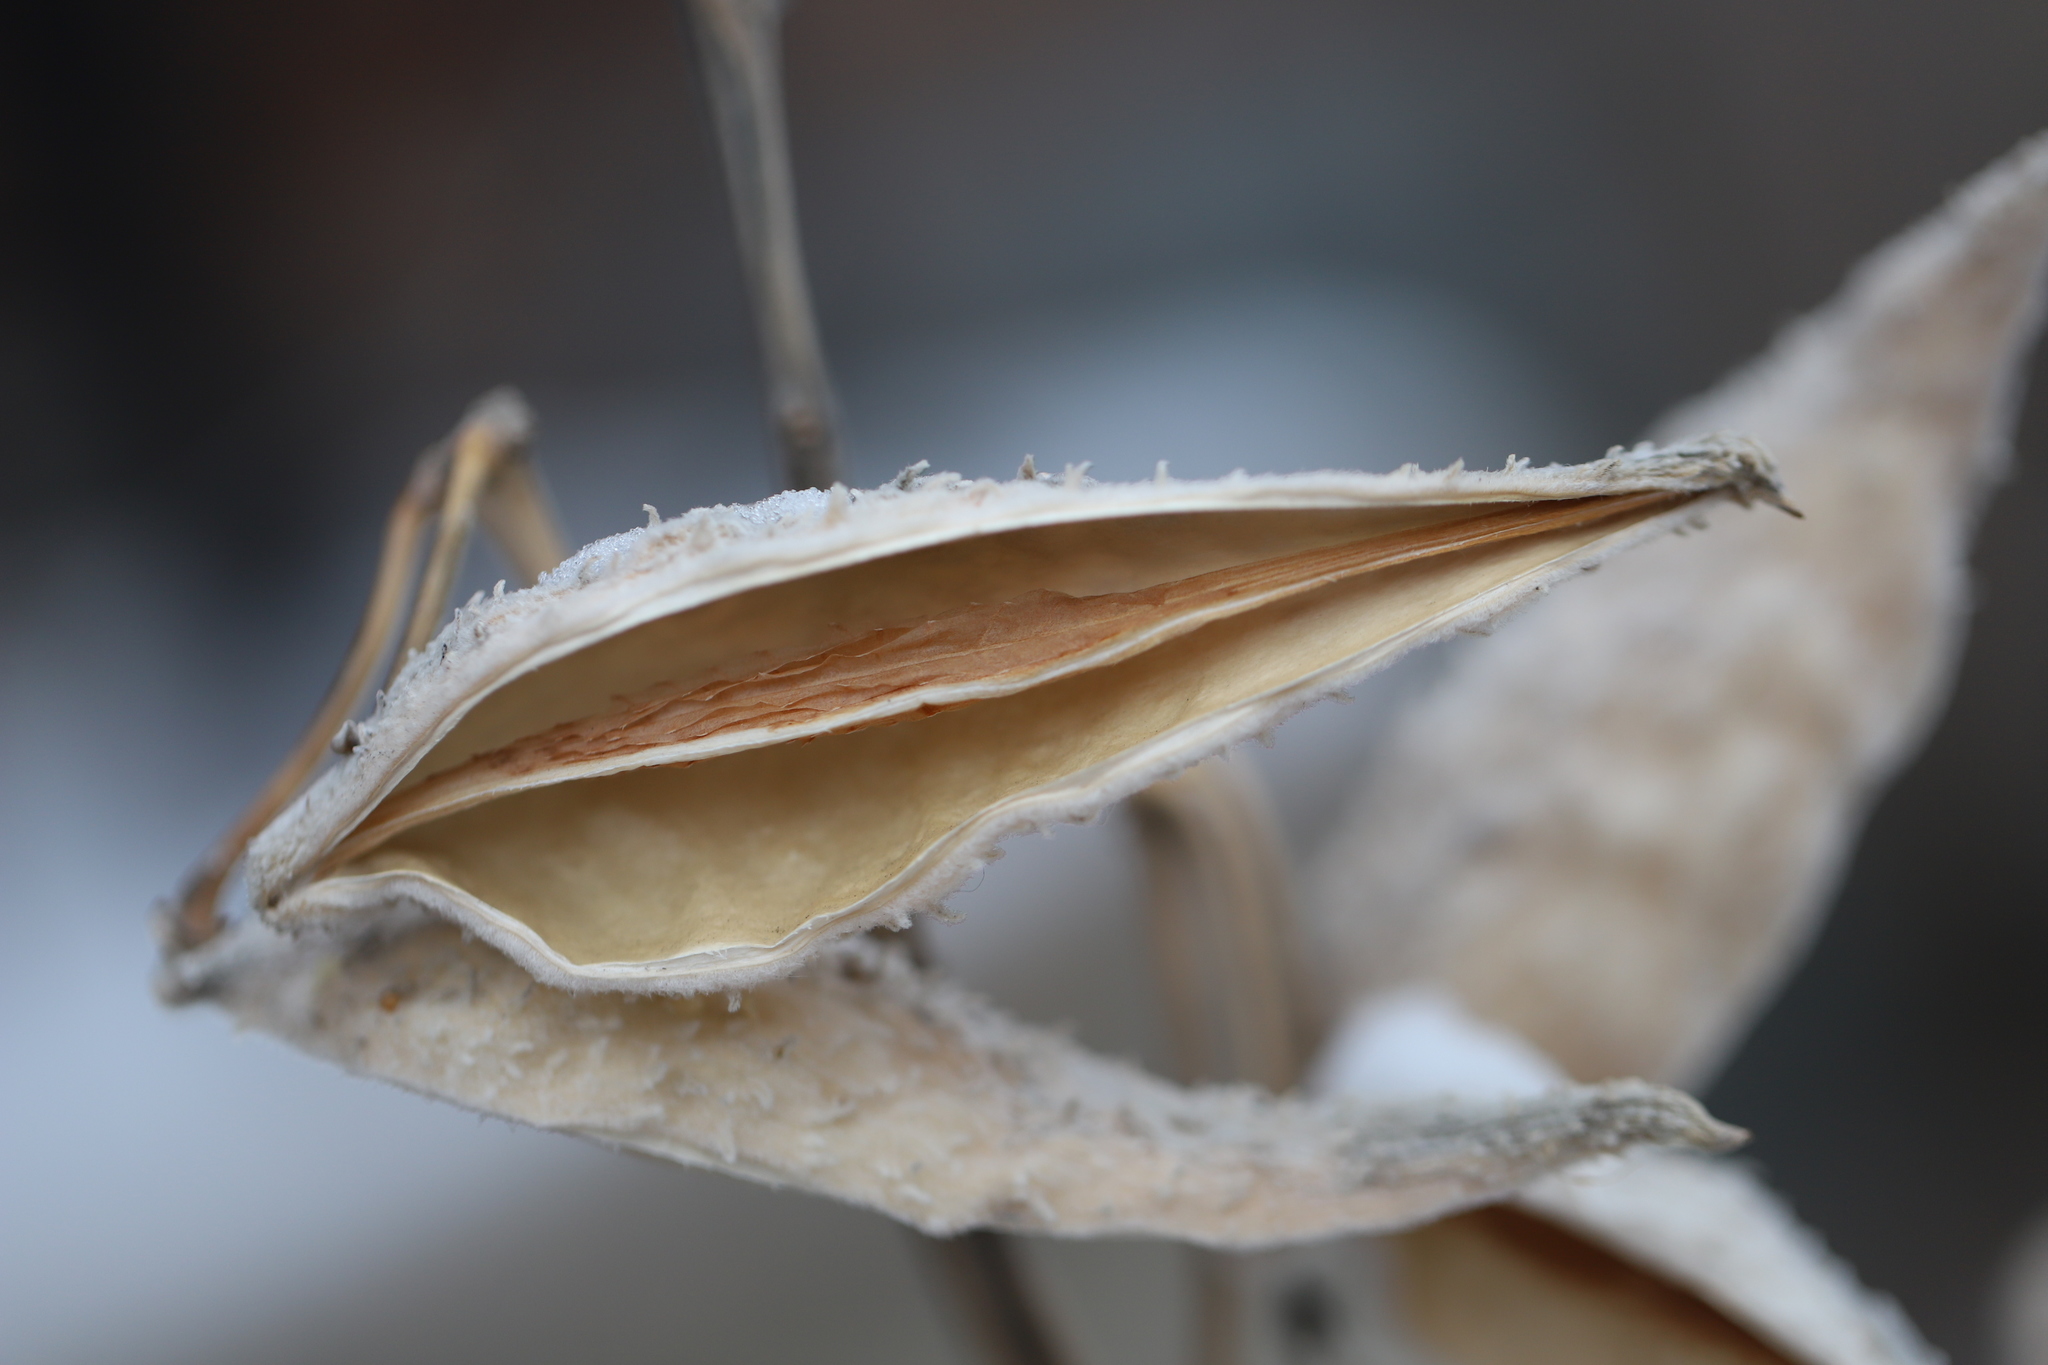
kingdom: Plantae
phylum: Tracheophyta
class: Magnoliopsida
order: Gentianales
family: Apocynaceae
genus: Asclepias
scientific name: Asclepias syriaca
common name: Common milkweed
